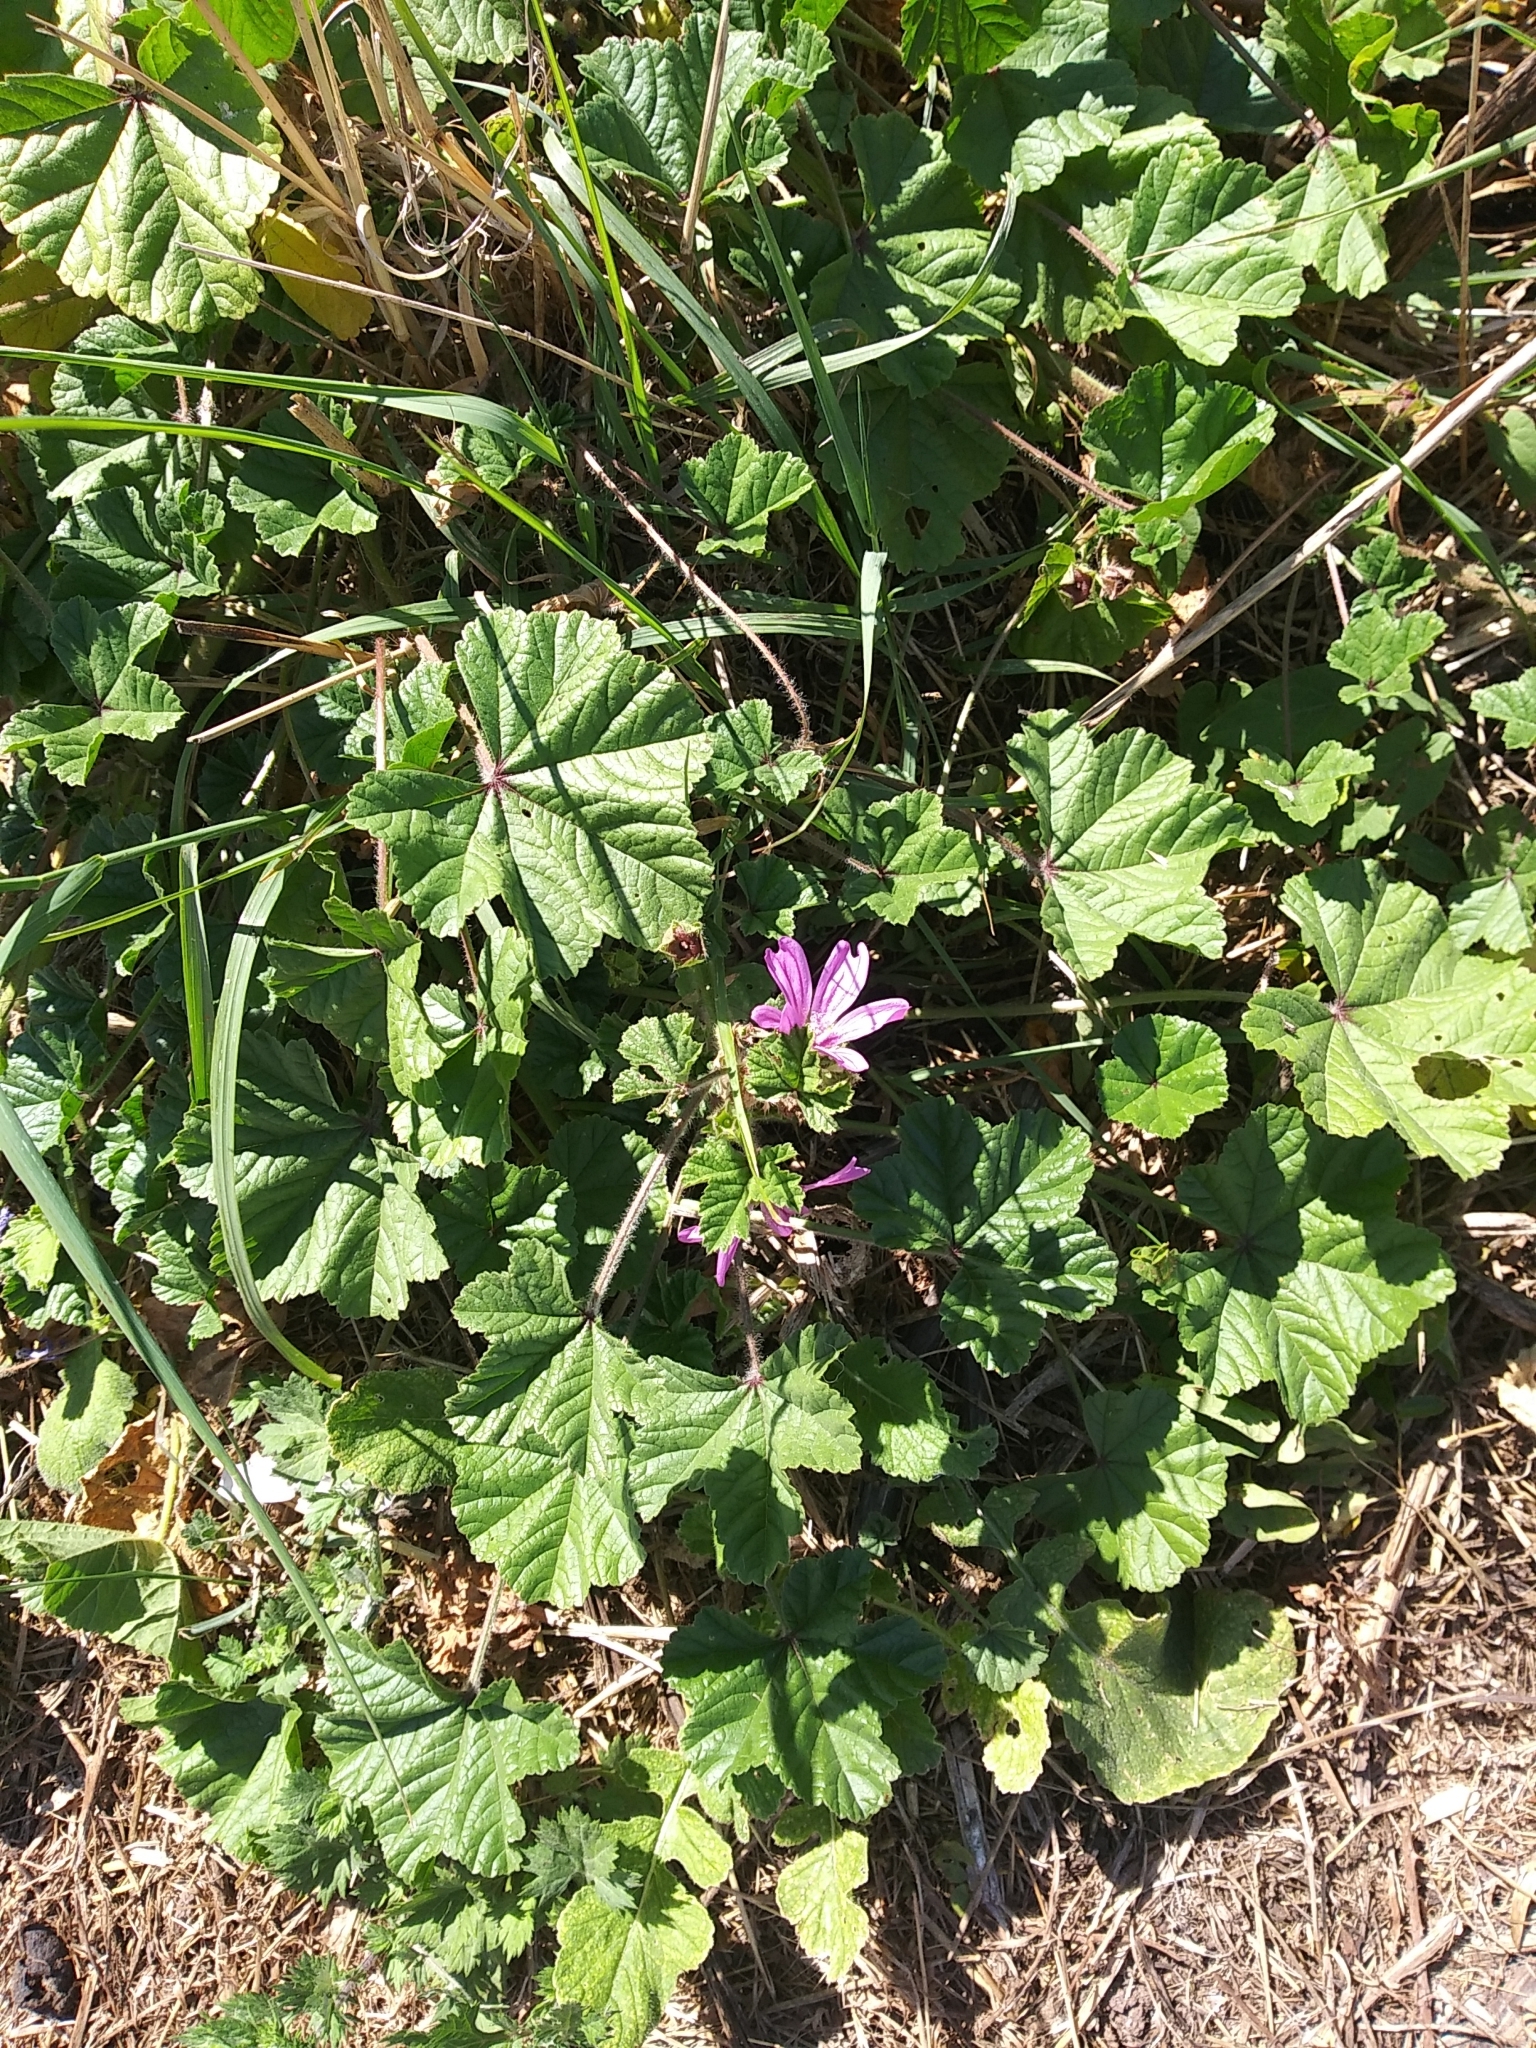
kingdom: Plantae
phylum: Tracheophyta
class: Magnoliopsida
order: Malvales
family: Malvaceae
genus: Malva
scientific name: Malva sylvestris
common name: Common mallow
